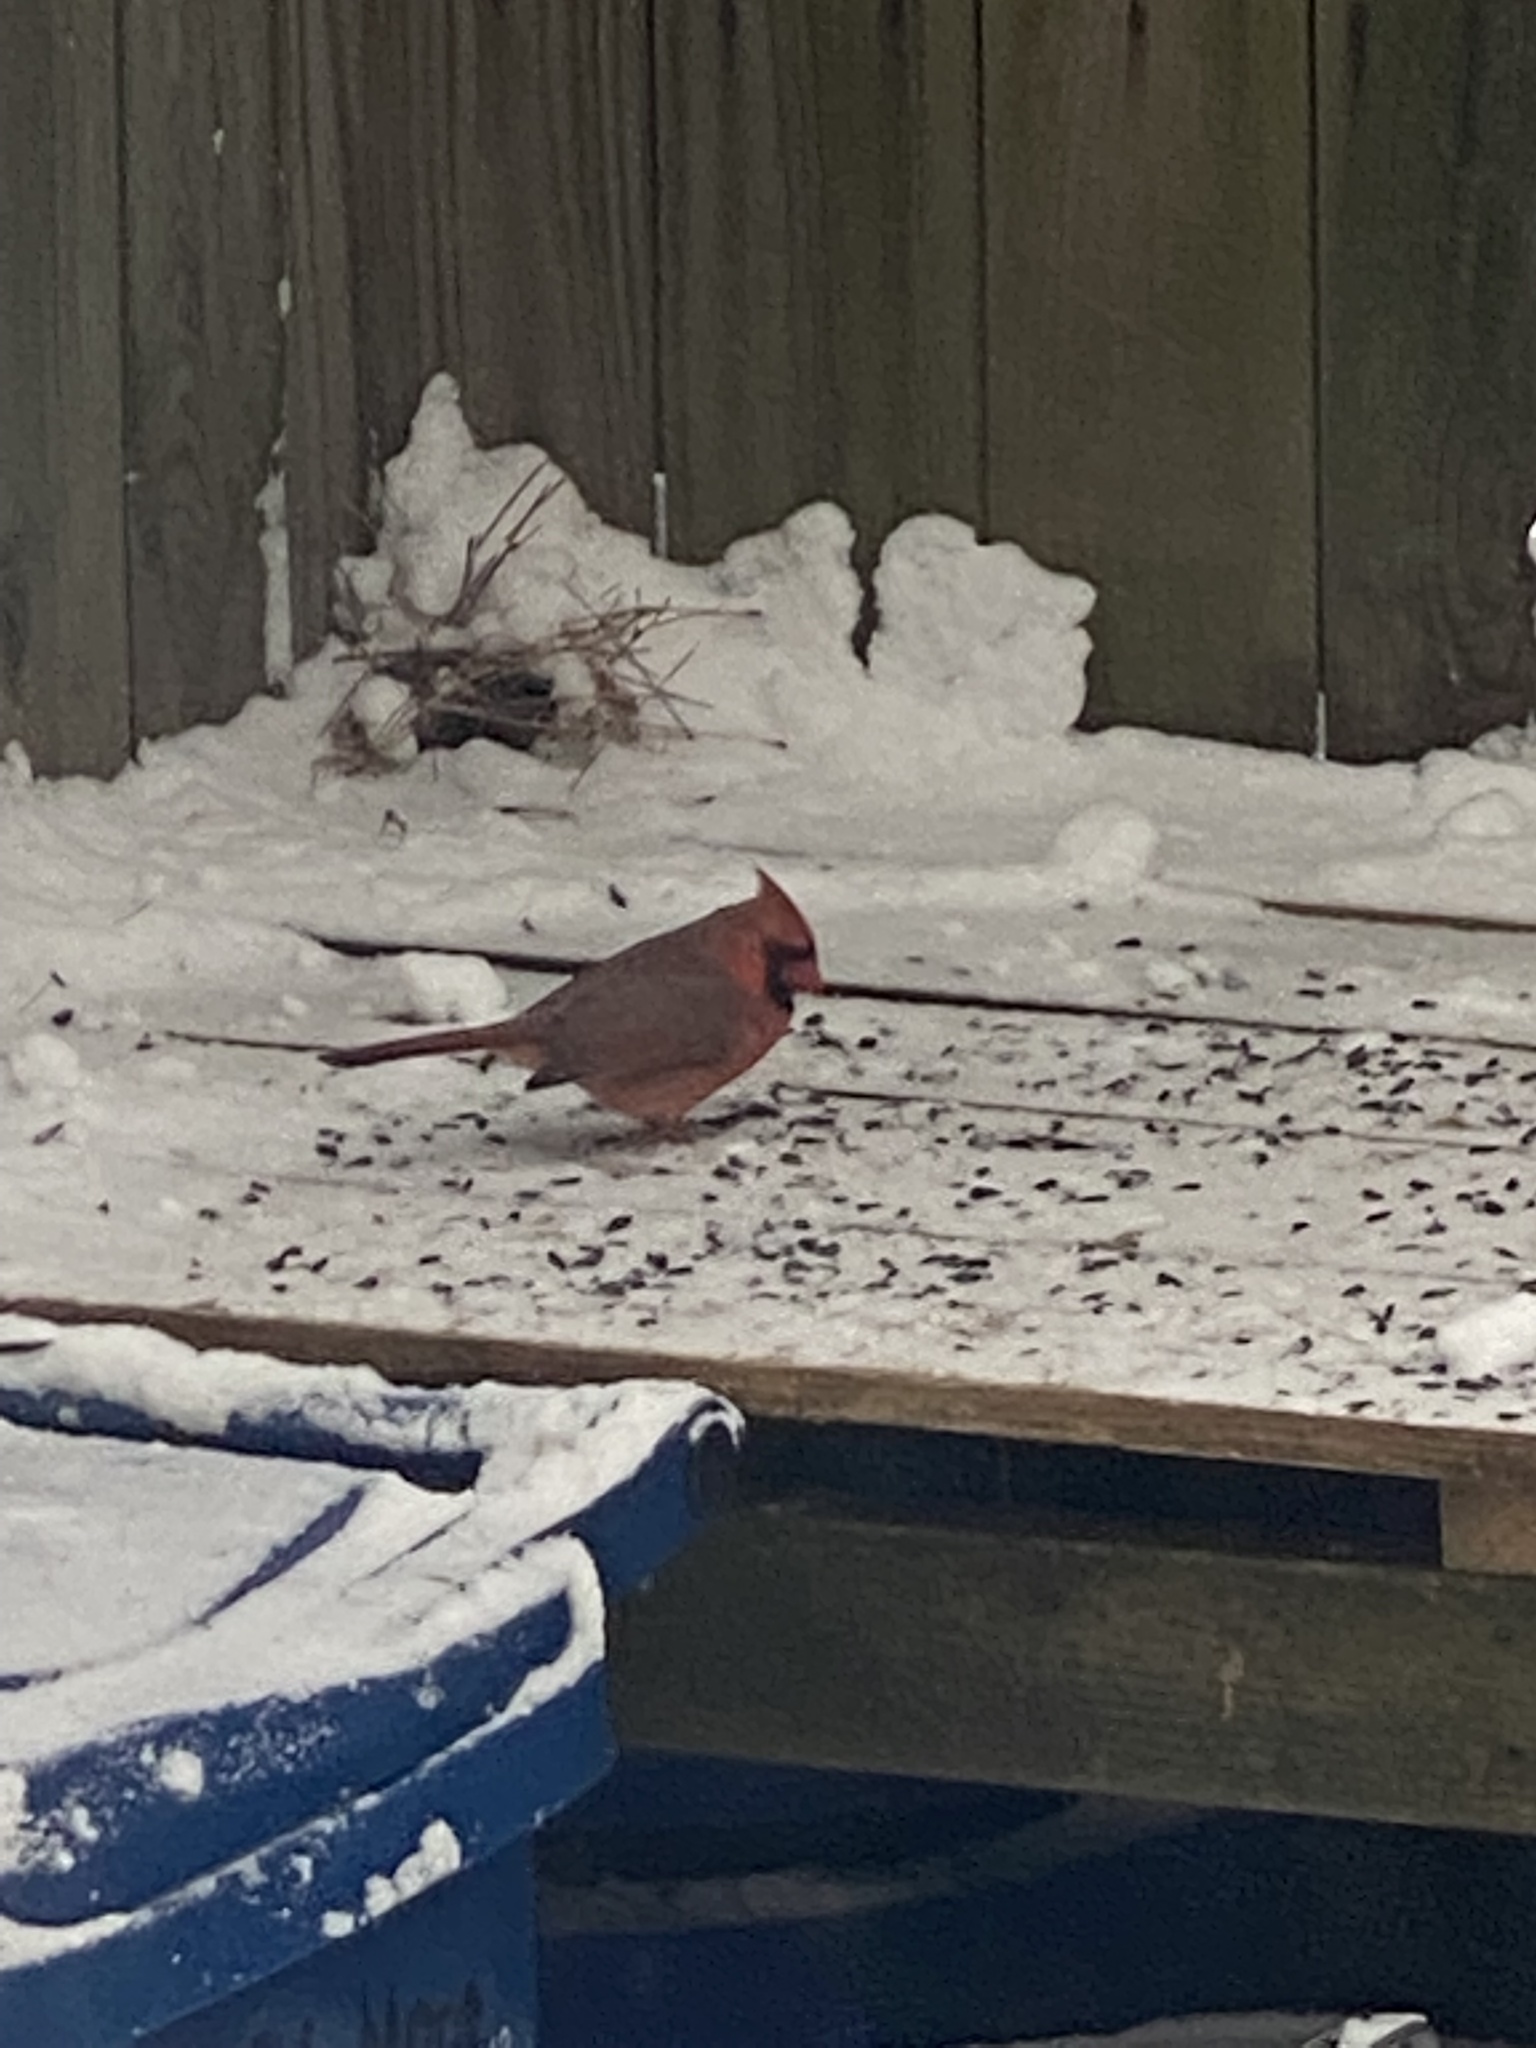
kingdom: Animalia
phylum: Chordata
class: Aves
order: Passeriformes
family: Cardinalidae
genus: Cardinalis
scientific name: Cardinalis cardinalis
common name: Northern cardinal
